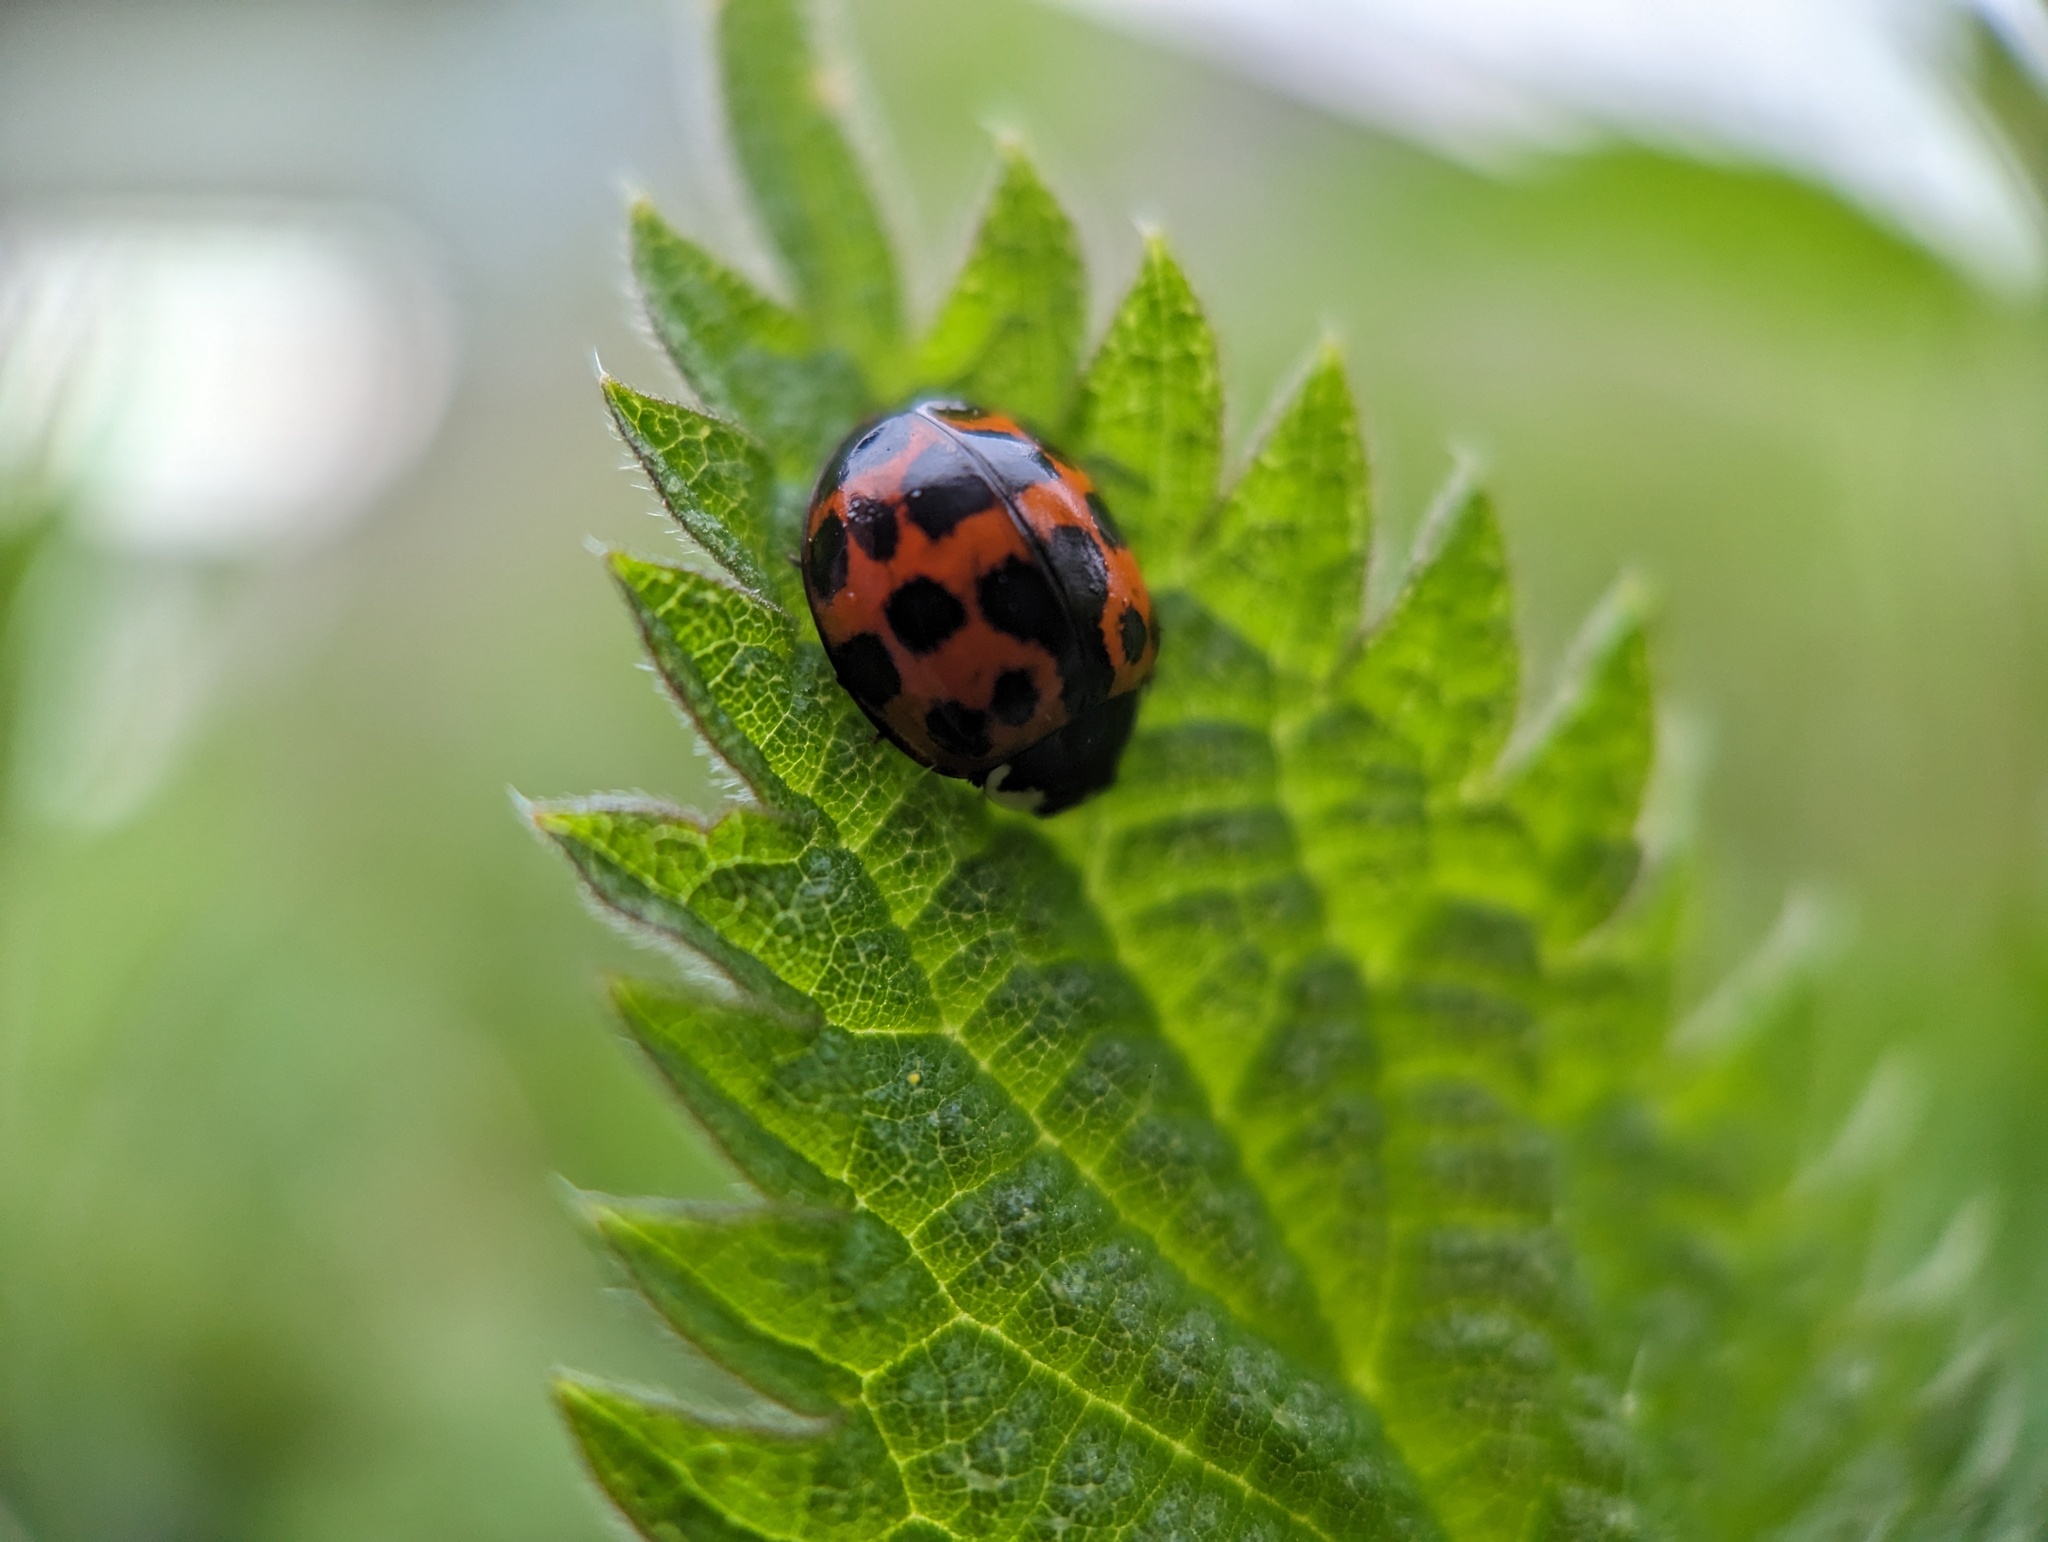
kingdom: Animalia
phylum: Arthropoda
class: Insecta
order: Coleoptera
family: Coccinellidae
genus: Harmonia
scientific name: Harmonia axyridis
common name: Harlequin ladybird
